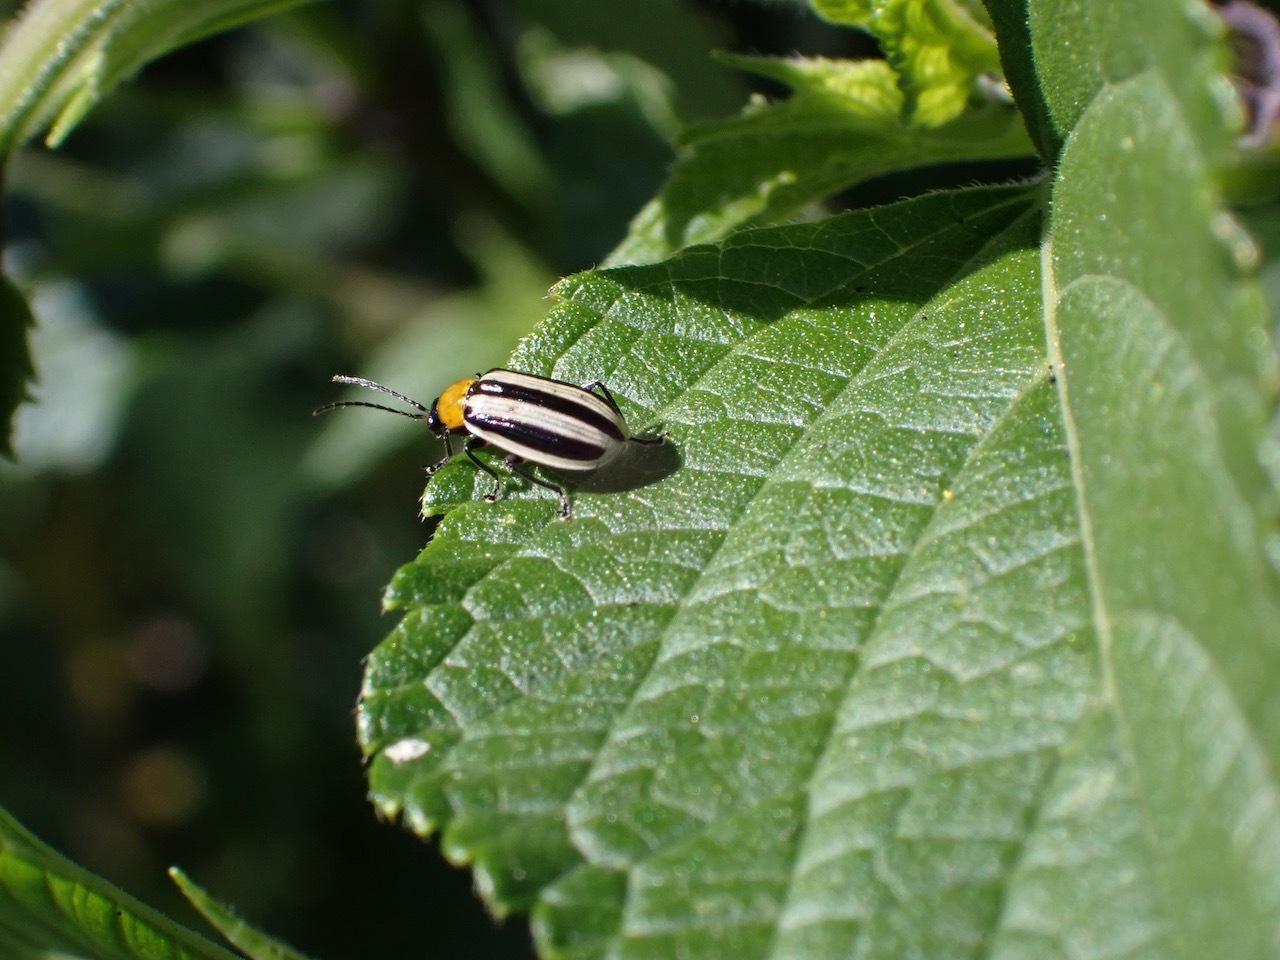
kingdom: Animalia
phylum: Arthropoda
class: Insecta
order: Coleoptera
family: Chrysomelidae
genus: Acalymma
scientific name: Acalymma trivittatum
